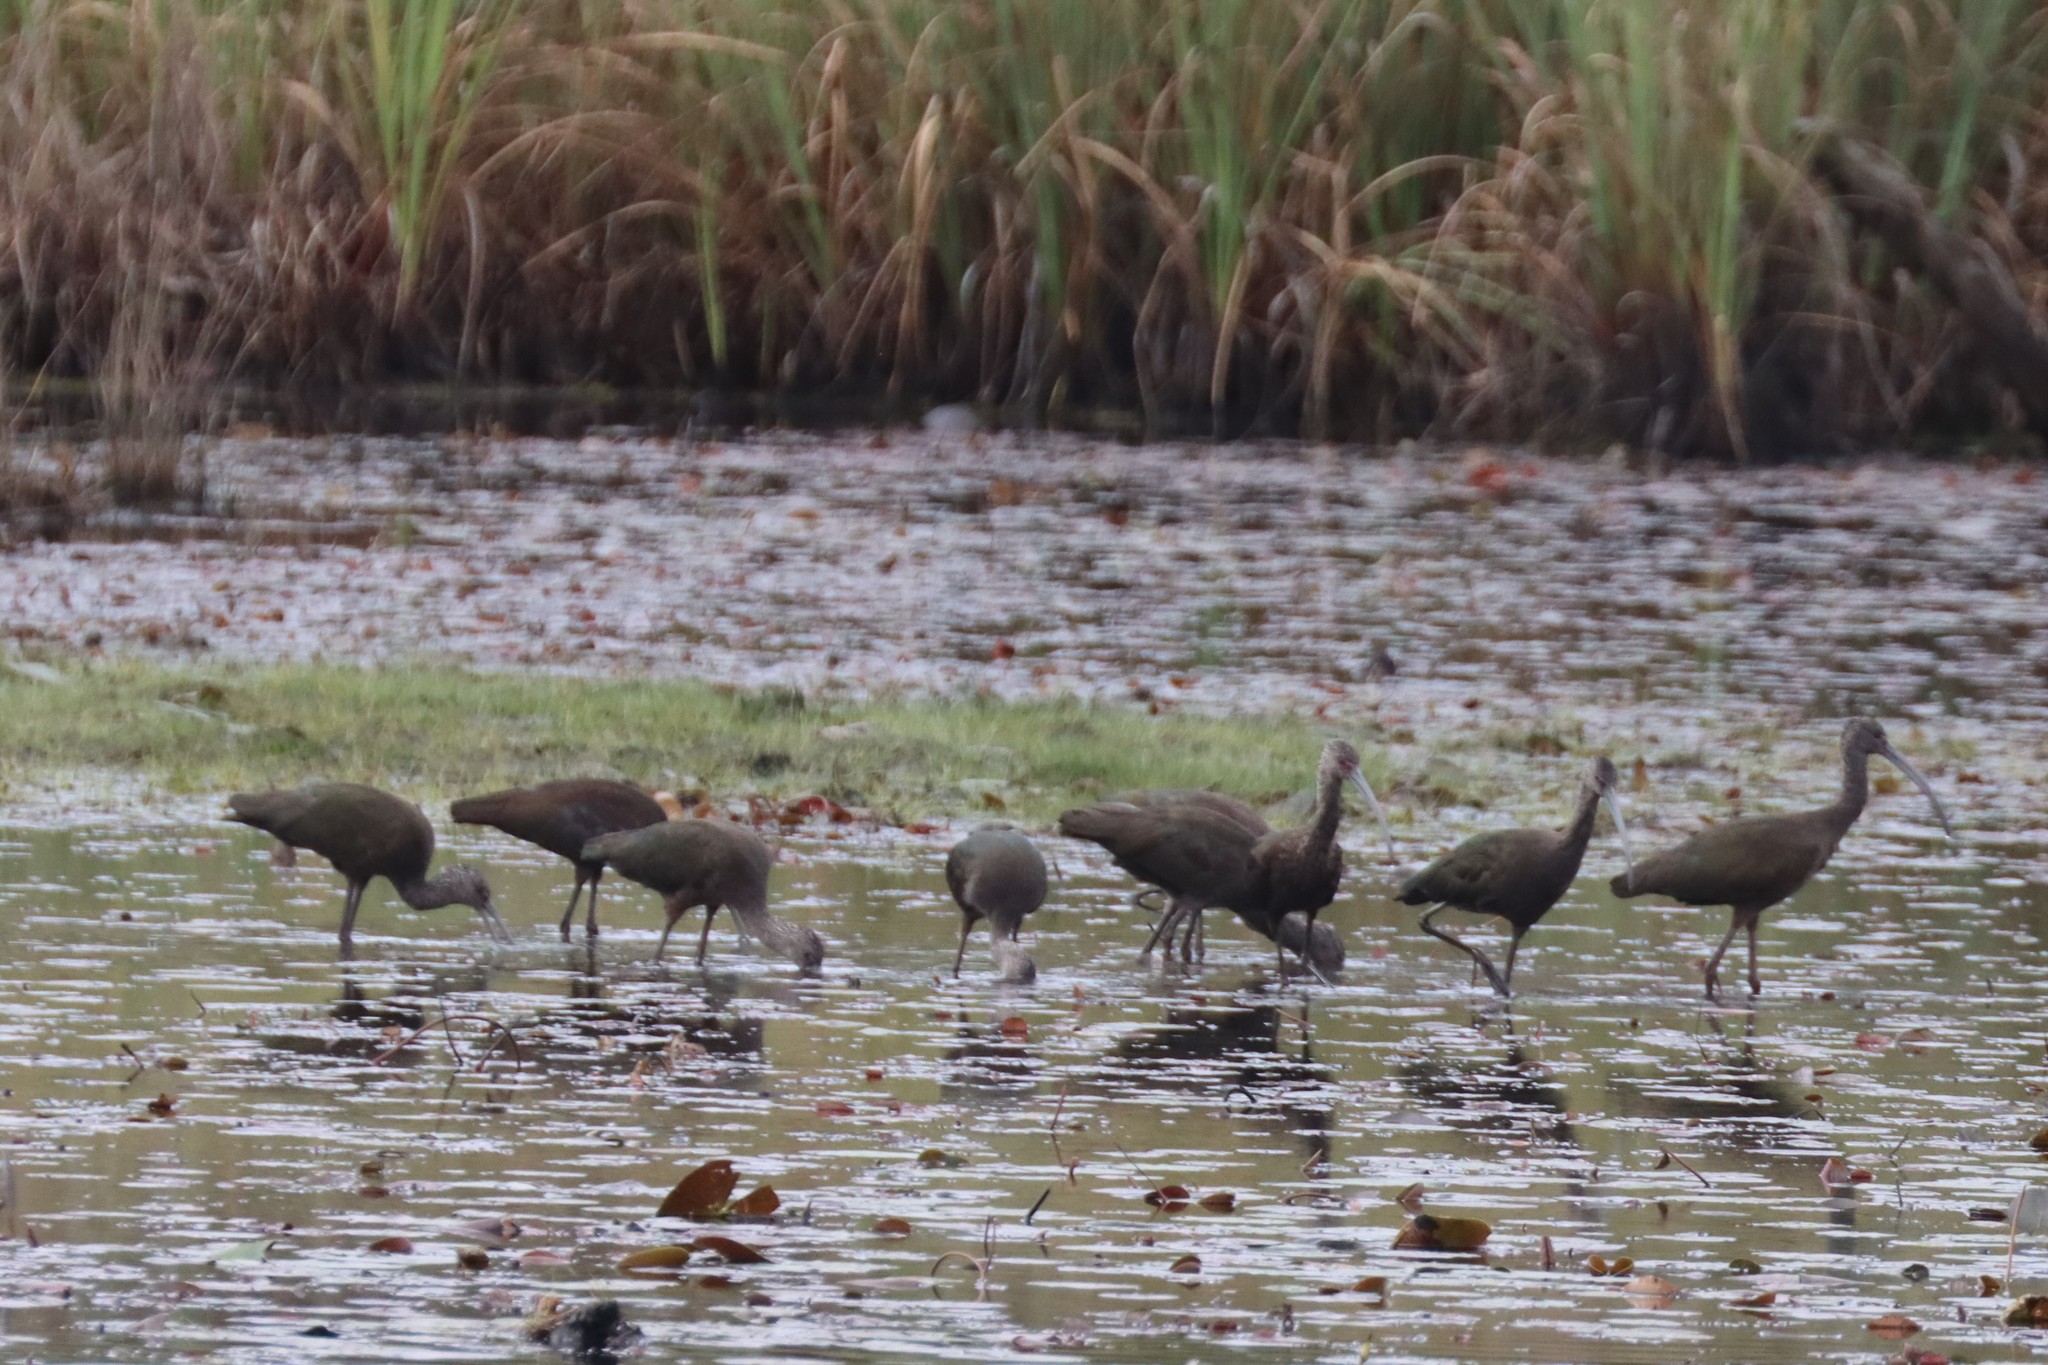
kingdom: Animalia
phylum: Chordata
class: Aves
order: Pelecaniformes
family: Threskiornithidae
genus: Plegadis
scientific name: Plegadis
